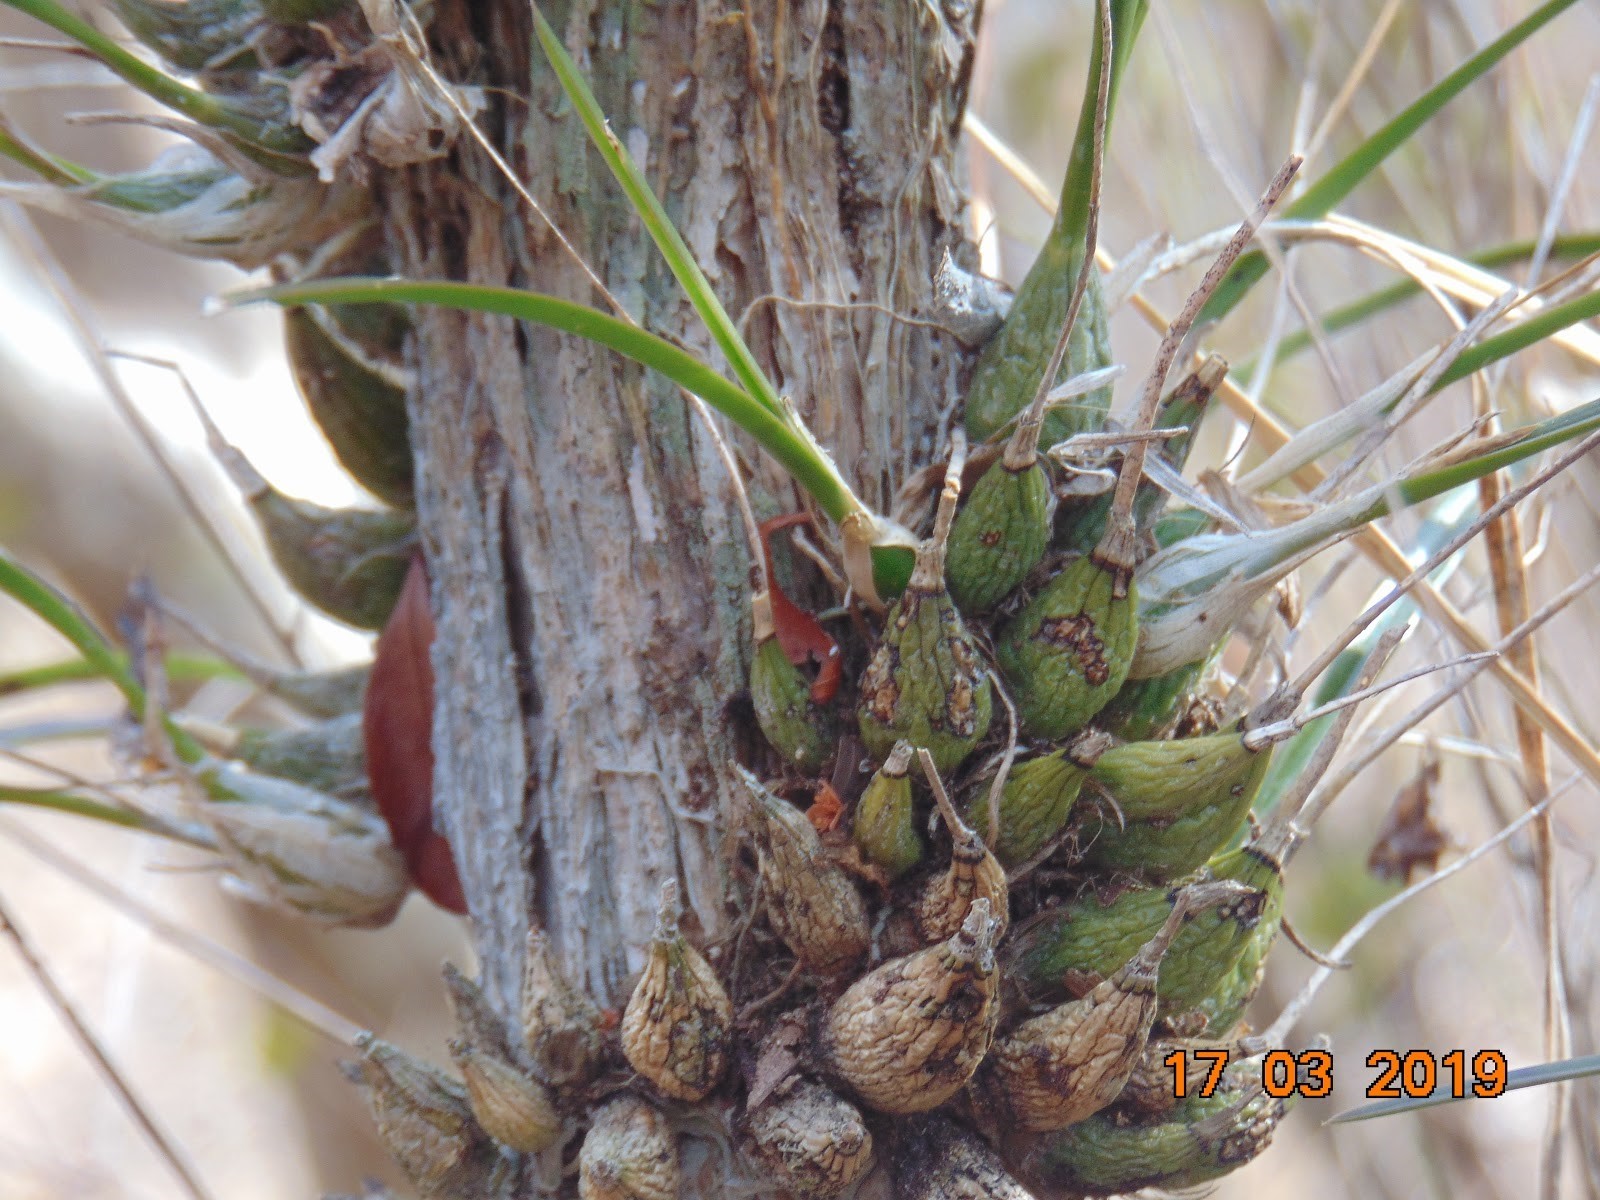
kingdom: Plantae
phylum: Tracheophyta
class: Liliopsida
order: Asparagales
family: Orchidaceae
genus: Encyclia
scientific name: Encyclia nematocaulon
